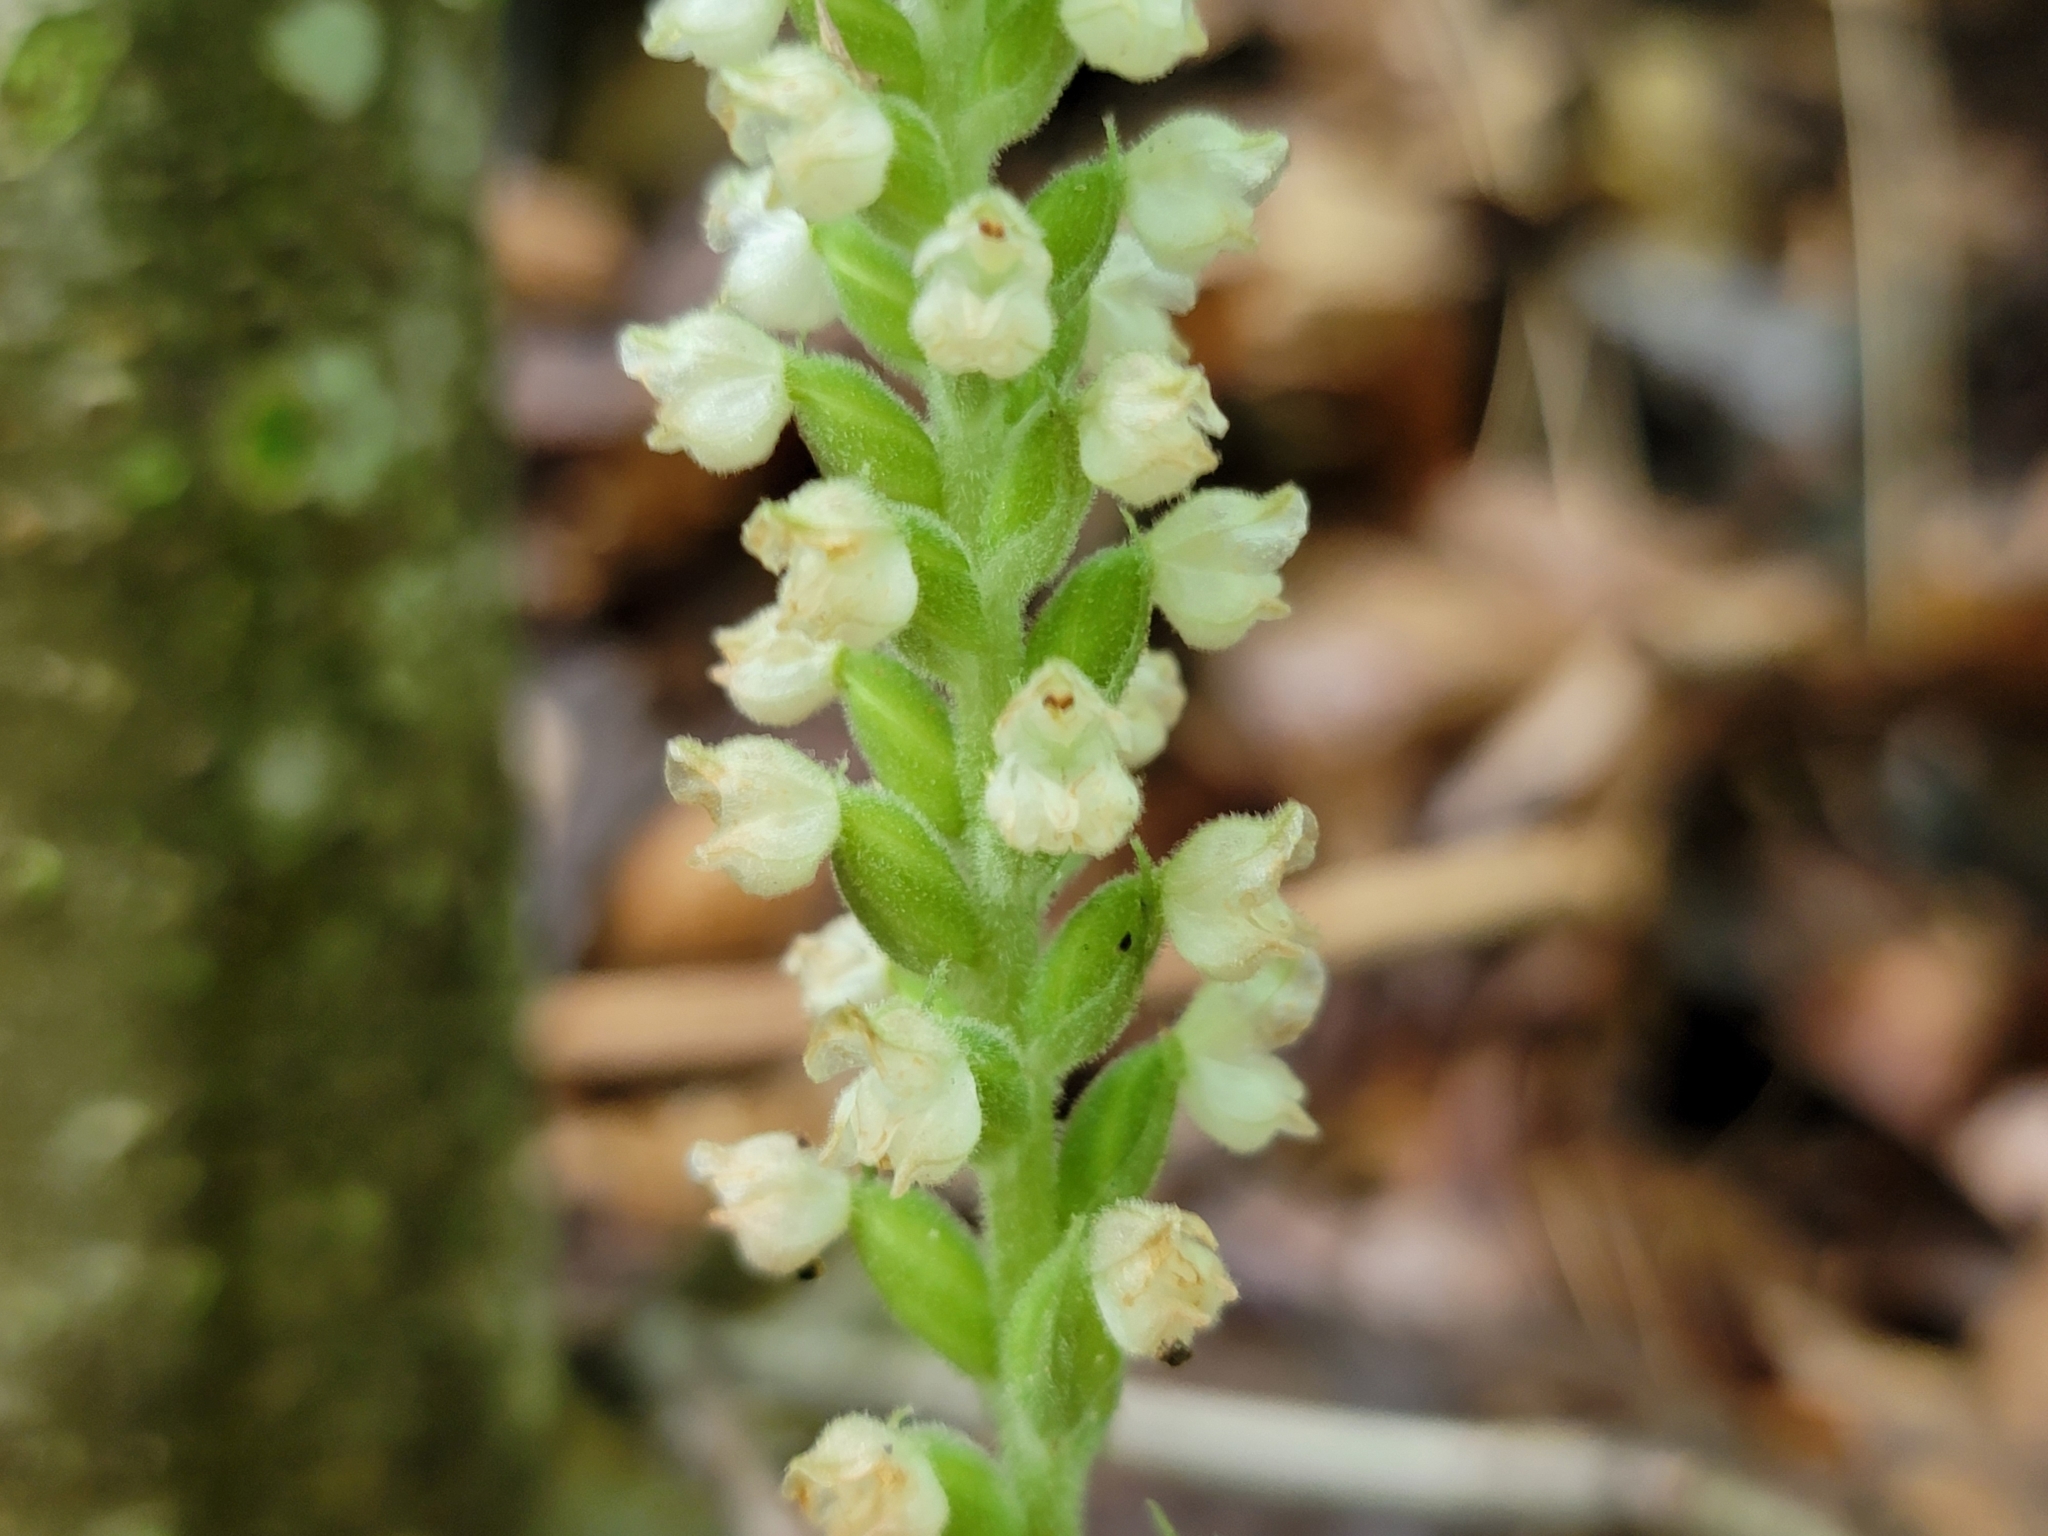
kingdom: Plantae
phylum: Tracheophyta
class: Liliopsida
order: Asparagales
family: Orchidaceae
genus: Goodyera
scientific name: Goodyera pubescens
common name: Downy rattlesnake-plantain
